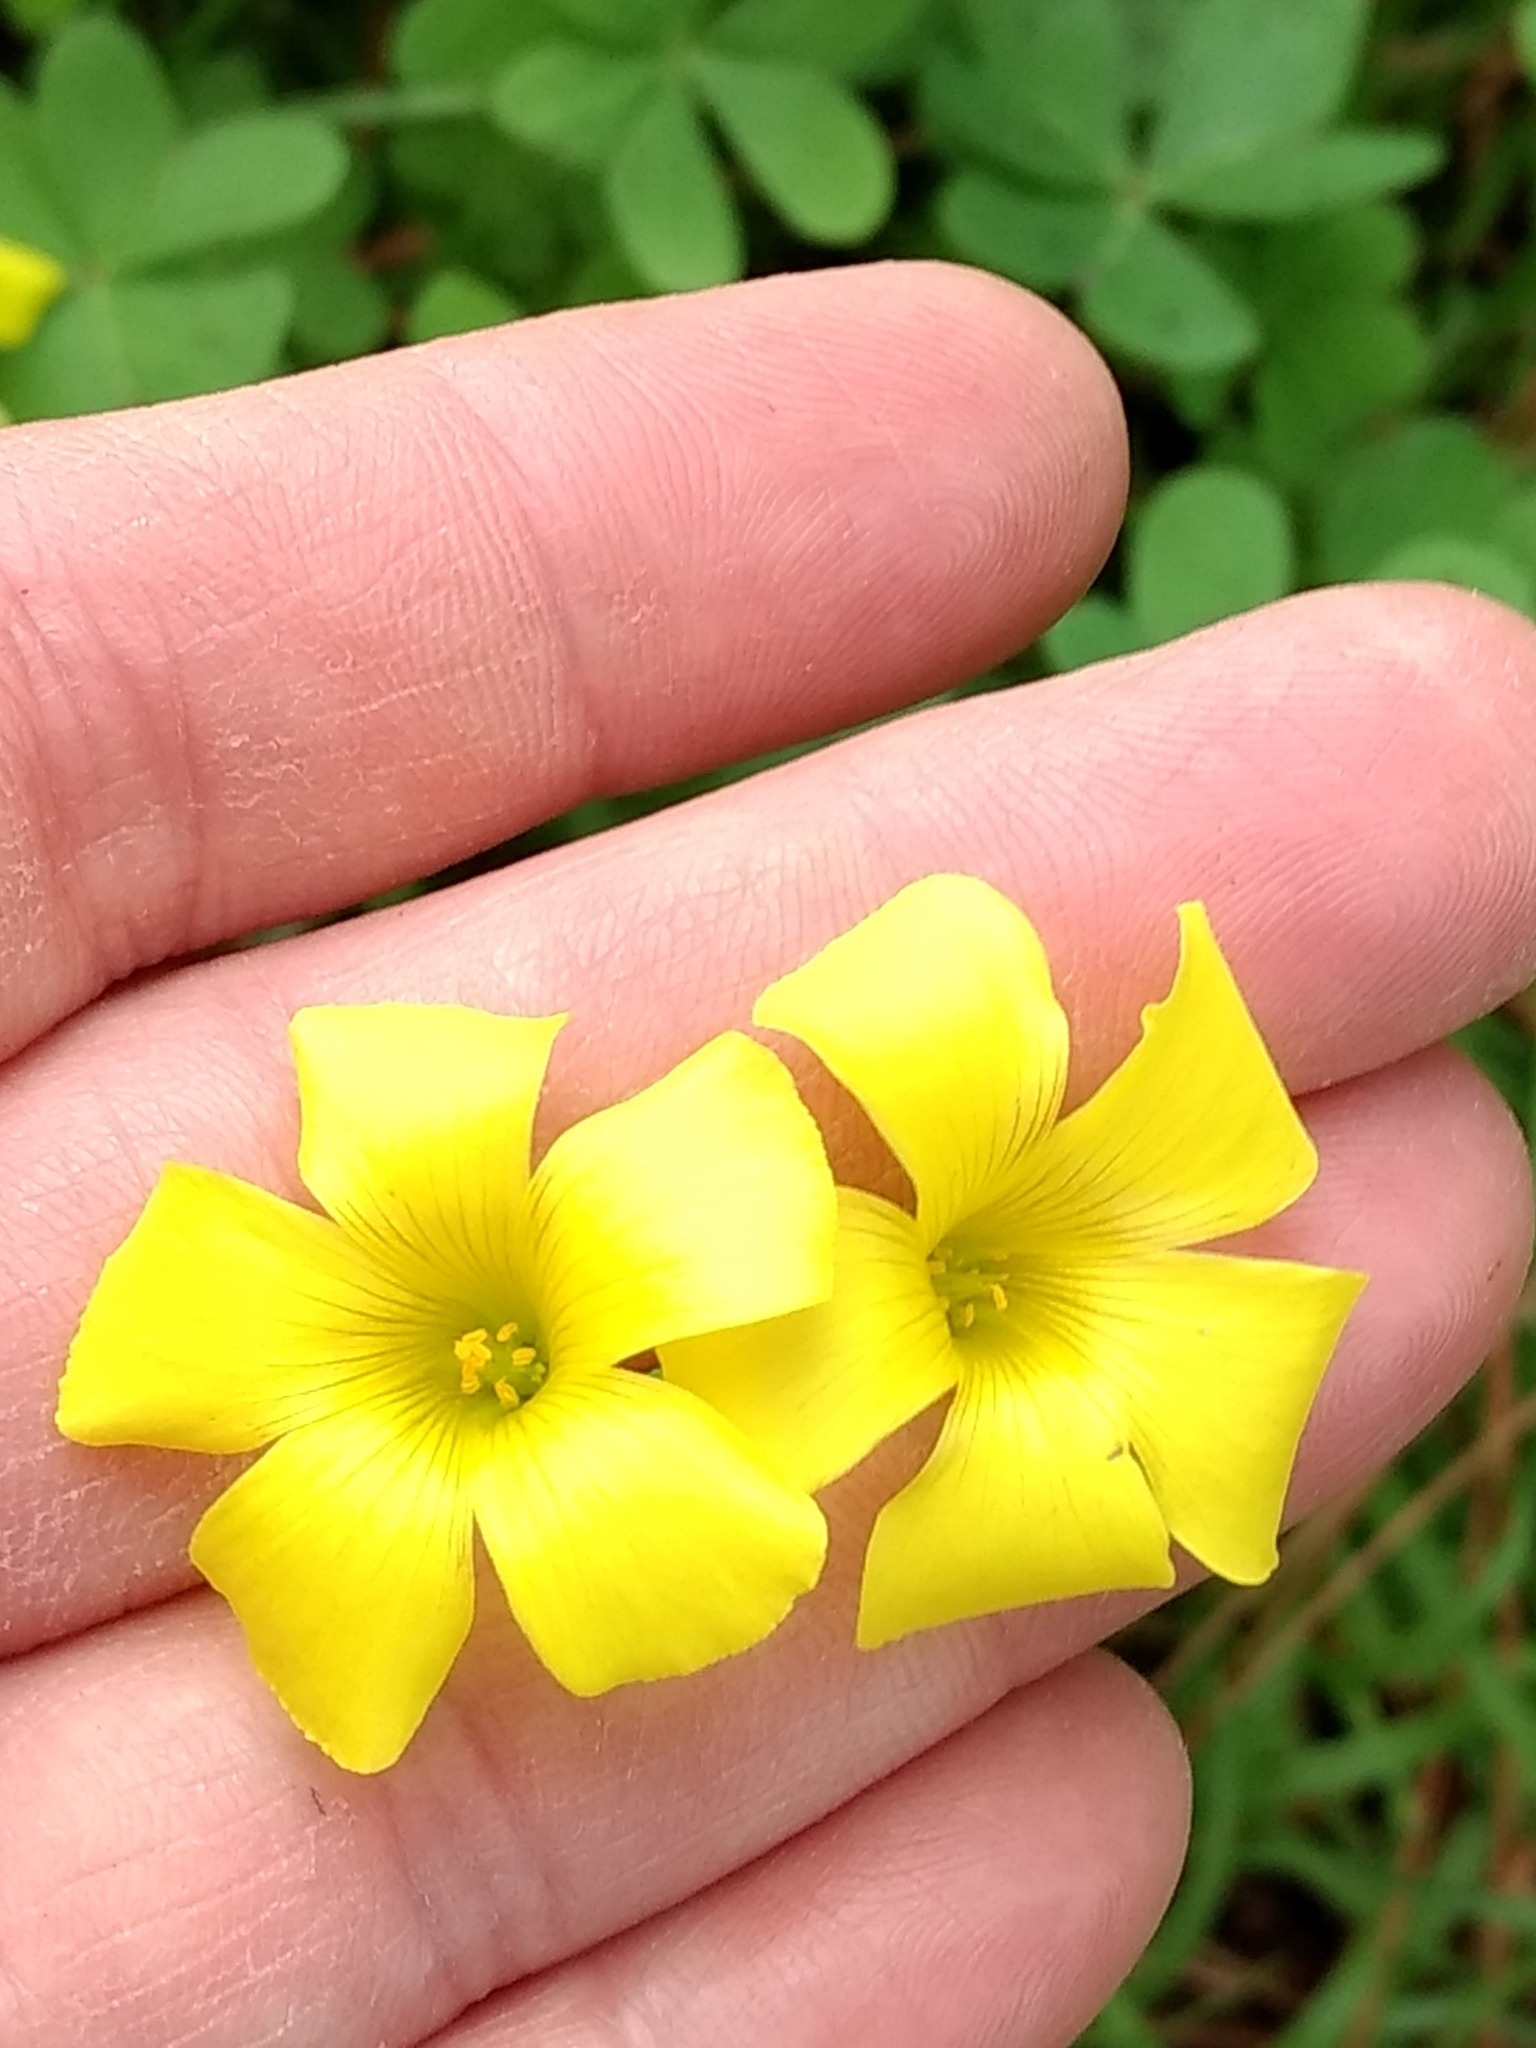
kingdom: Plantae
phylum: Tracheophyta
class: Magnoliopsida
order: Oxalidales
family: Oxalidaceae
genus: Oxalis
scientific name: Oxalis pes-caprae
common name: Bermuda-buttercup
